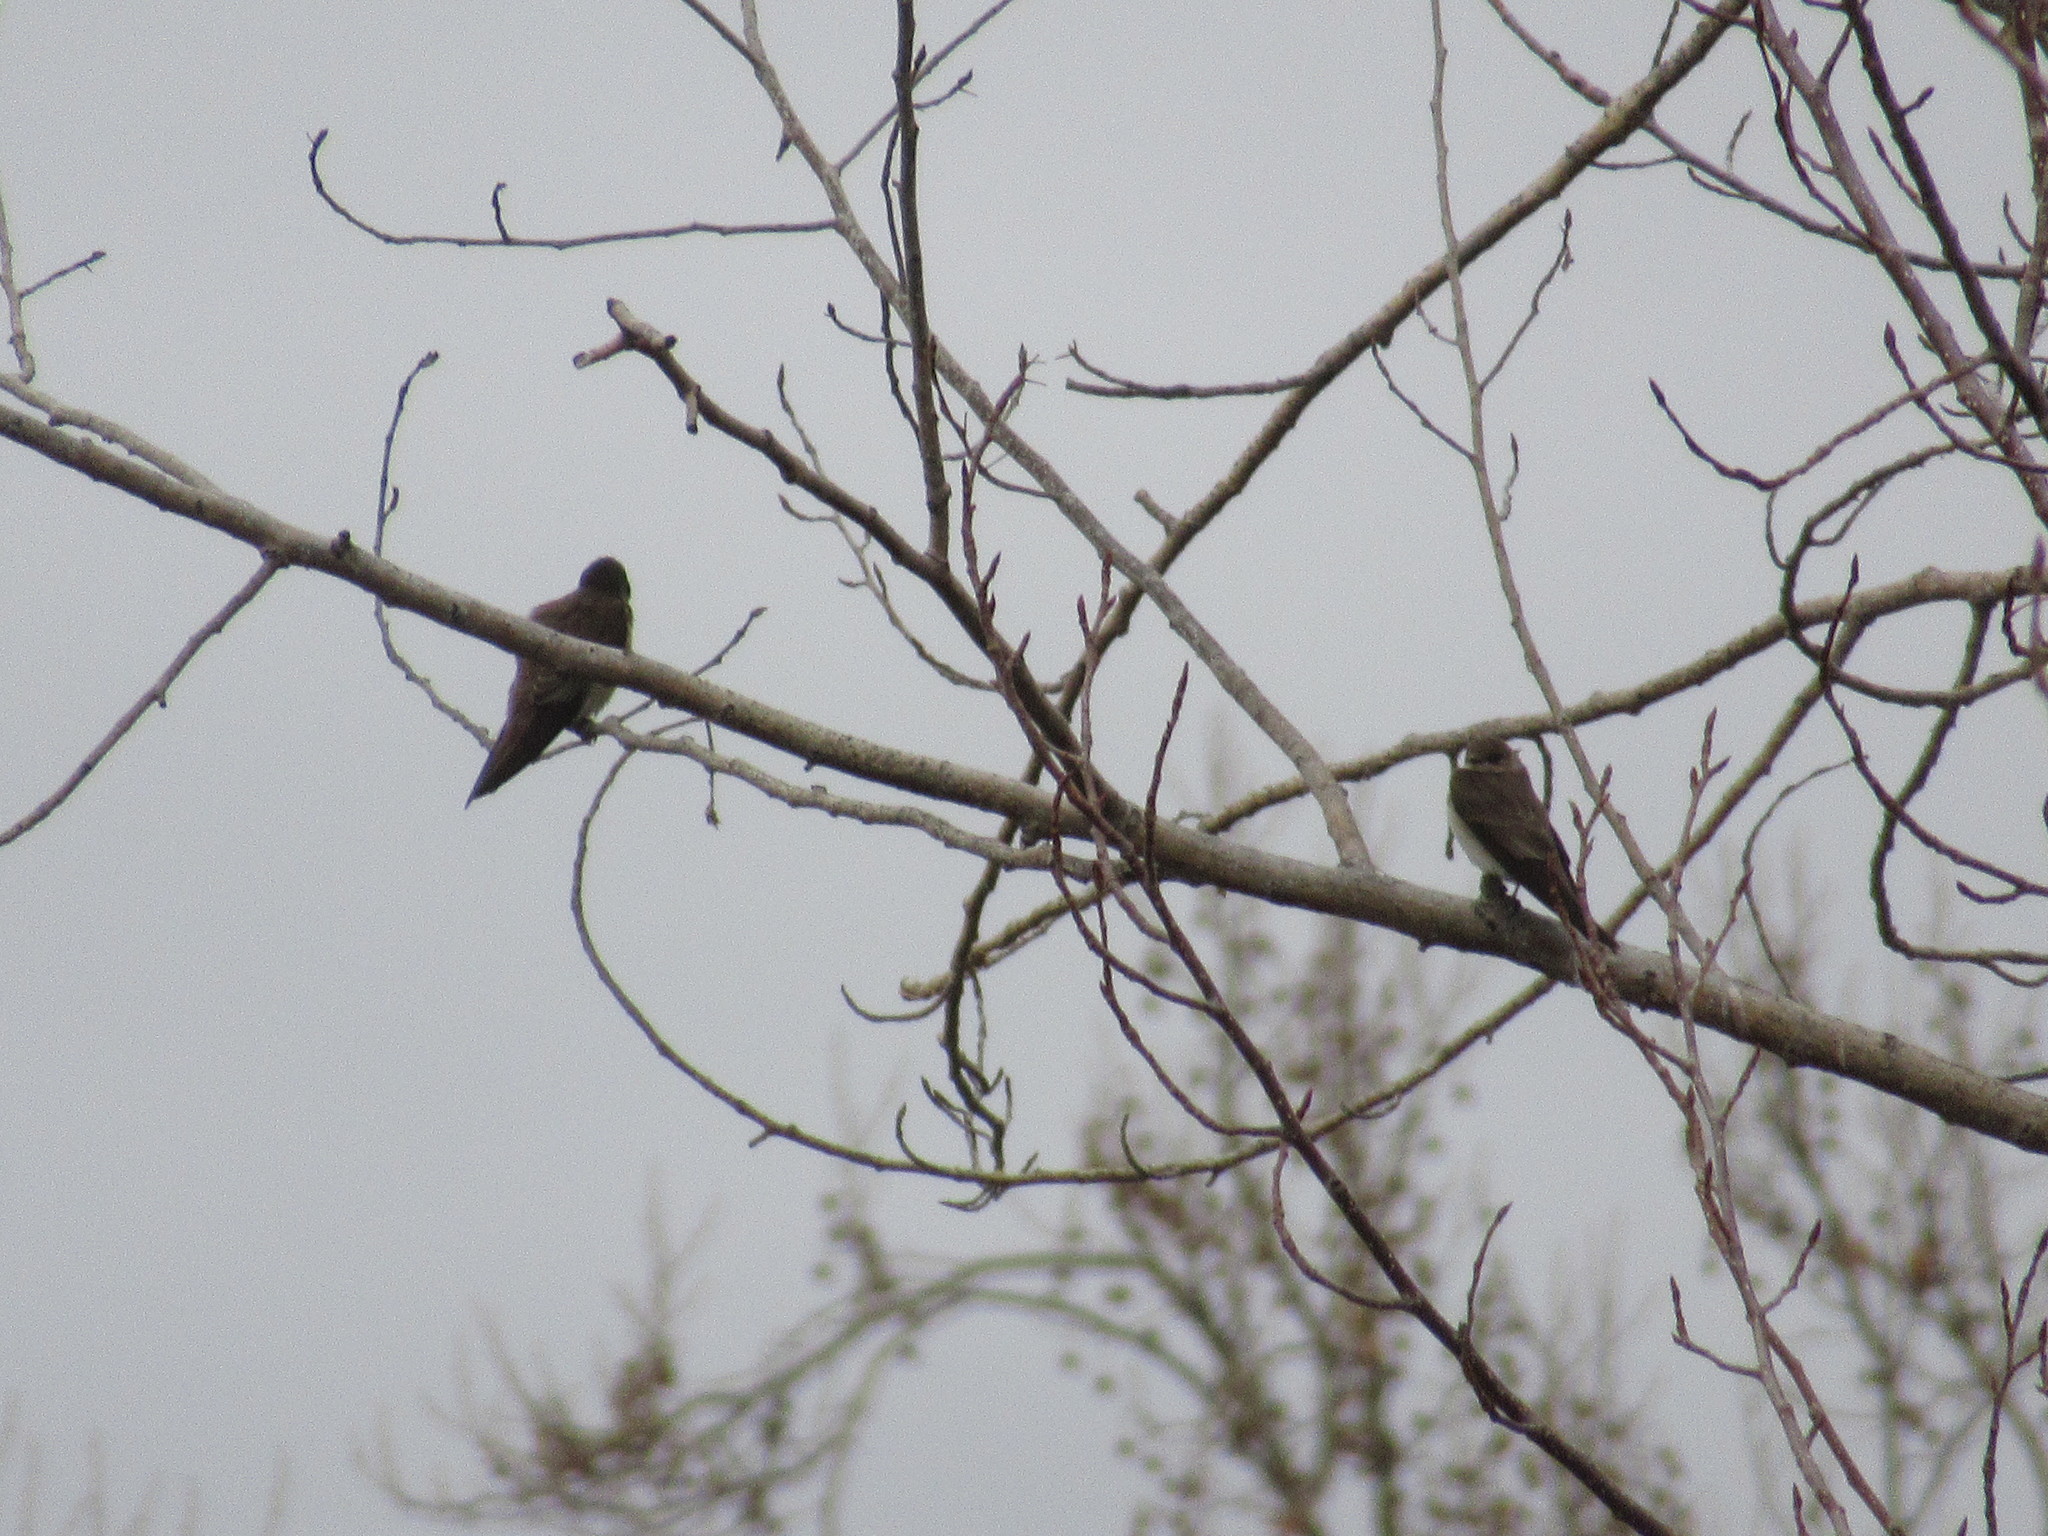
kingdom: Animalia
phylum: Chordata
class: Aves
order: Passeriformes
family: Hirundinidae
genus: Stelgidopteryx
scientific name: Stelgidopteryx serripennis
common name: Northern rough-winged swallow
